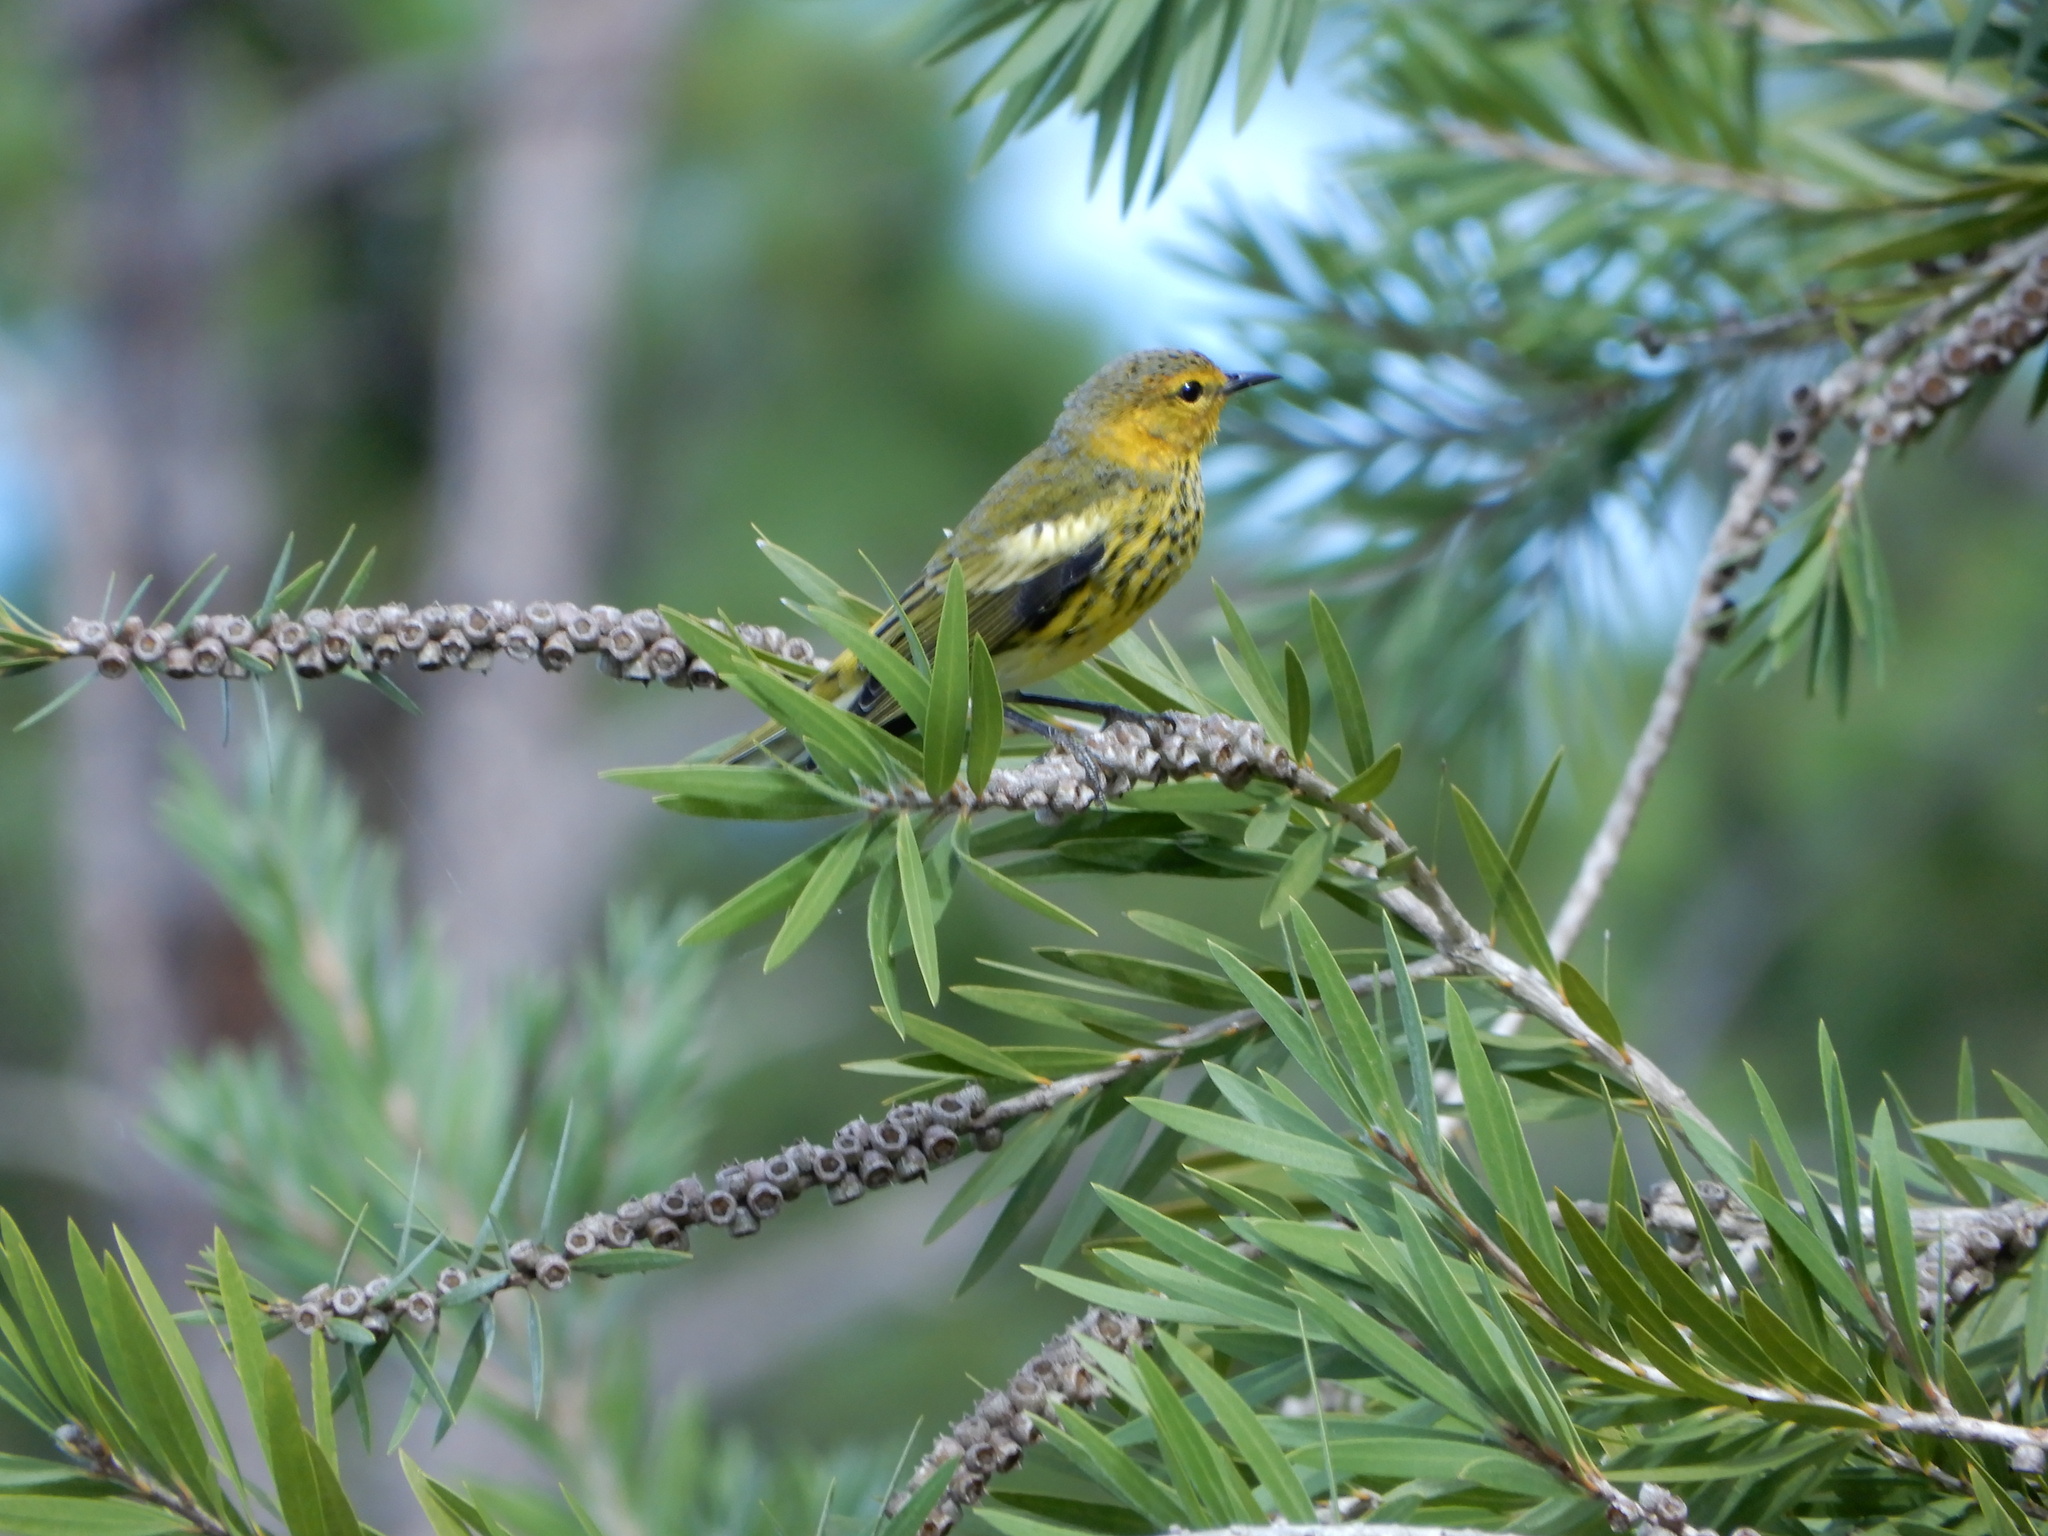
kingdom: Animalia
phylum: Chordata
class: Aves
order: Passeriformes
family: Parulidae
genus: Setophaga
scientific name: Setophaga tigrina
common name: Cape may warbler
